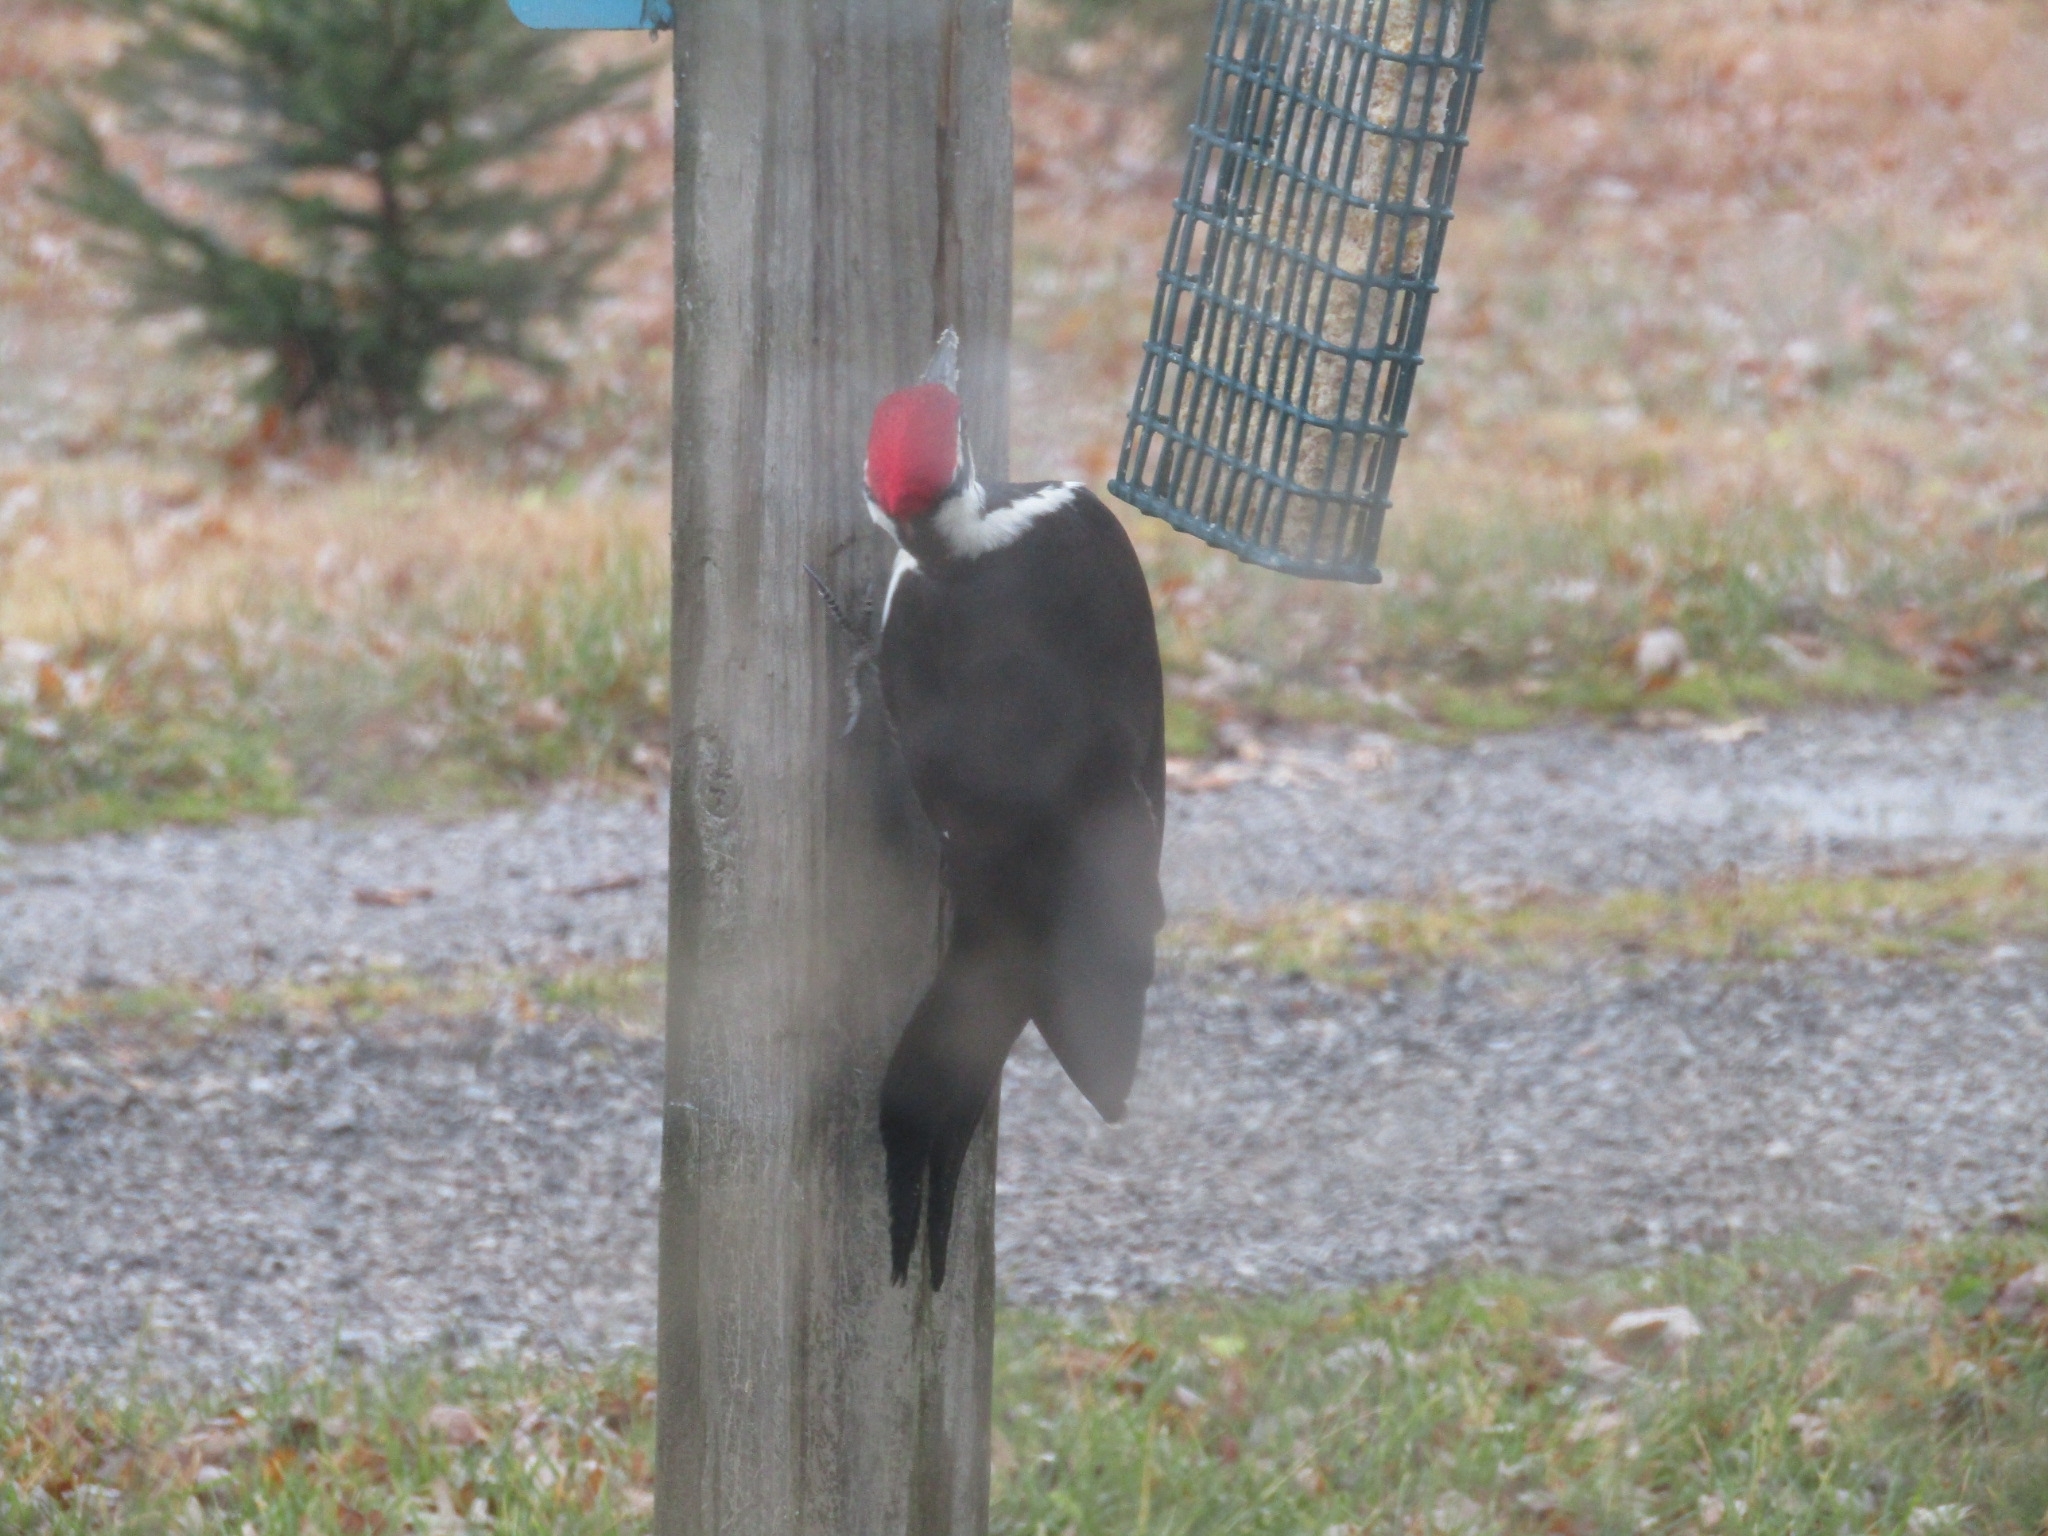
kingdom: Animalia
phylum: Chordata
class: Aves
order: Piciformes
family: Picidae
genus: Dryocopus
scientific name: Dryocopus pileatus
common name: Pileated woodpecker
